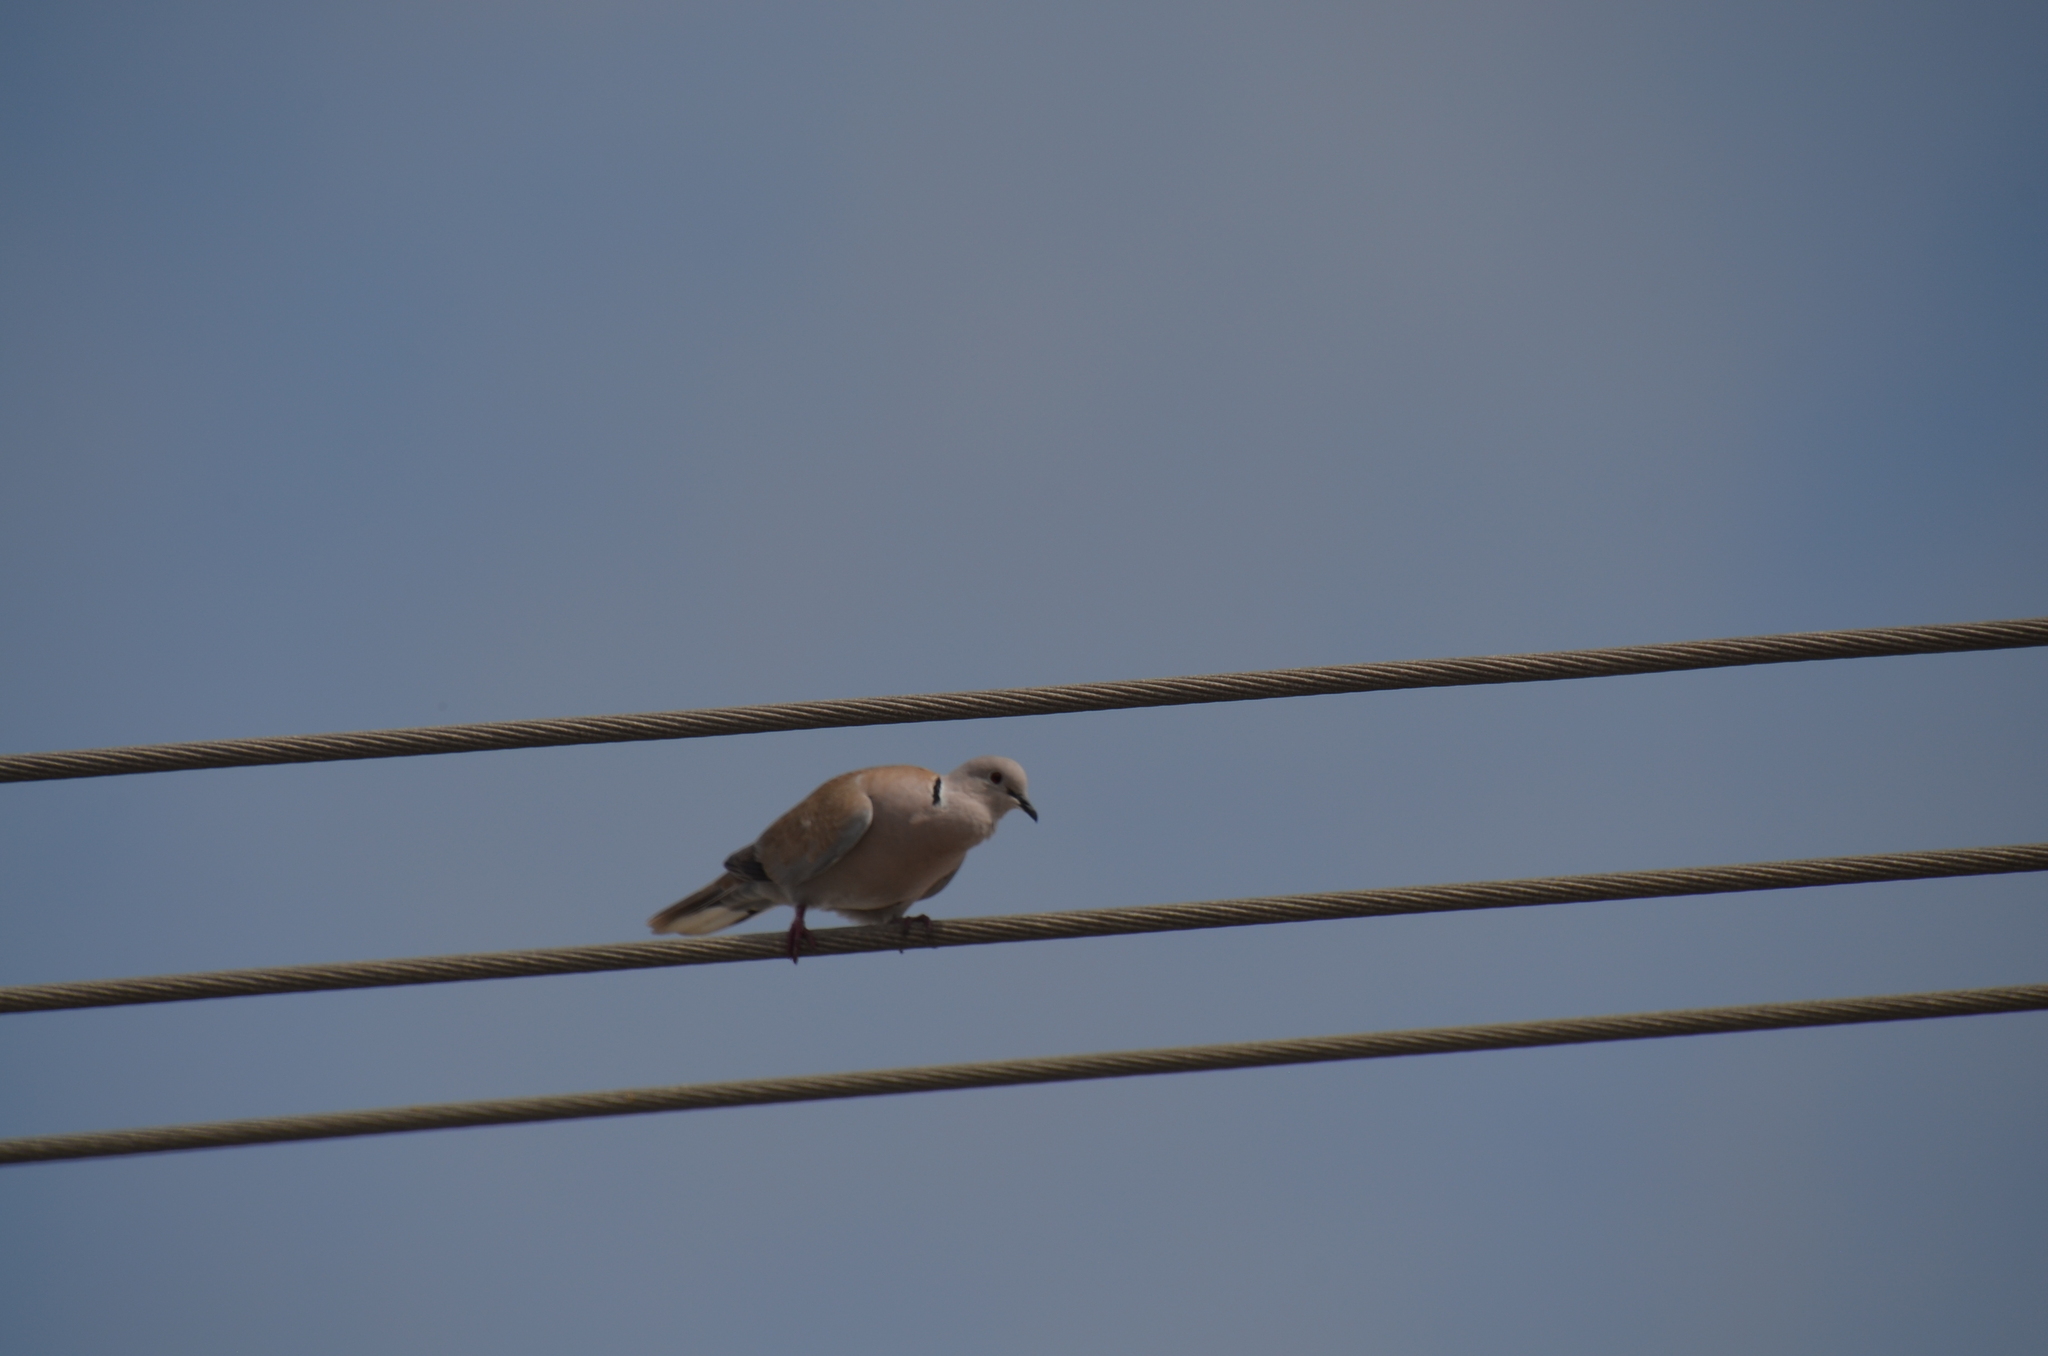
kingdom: Animalia
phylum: Chordata
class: Aves
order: Columbiformes
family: Columbidae
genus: Streptopelia
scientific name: Streptopelia decaocto
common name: Eurasian collared dove
